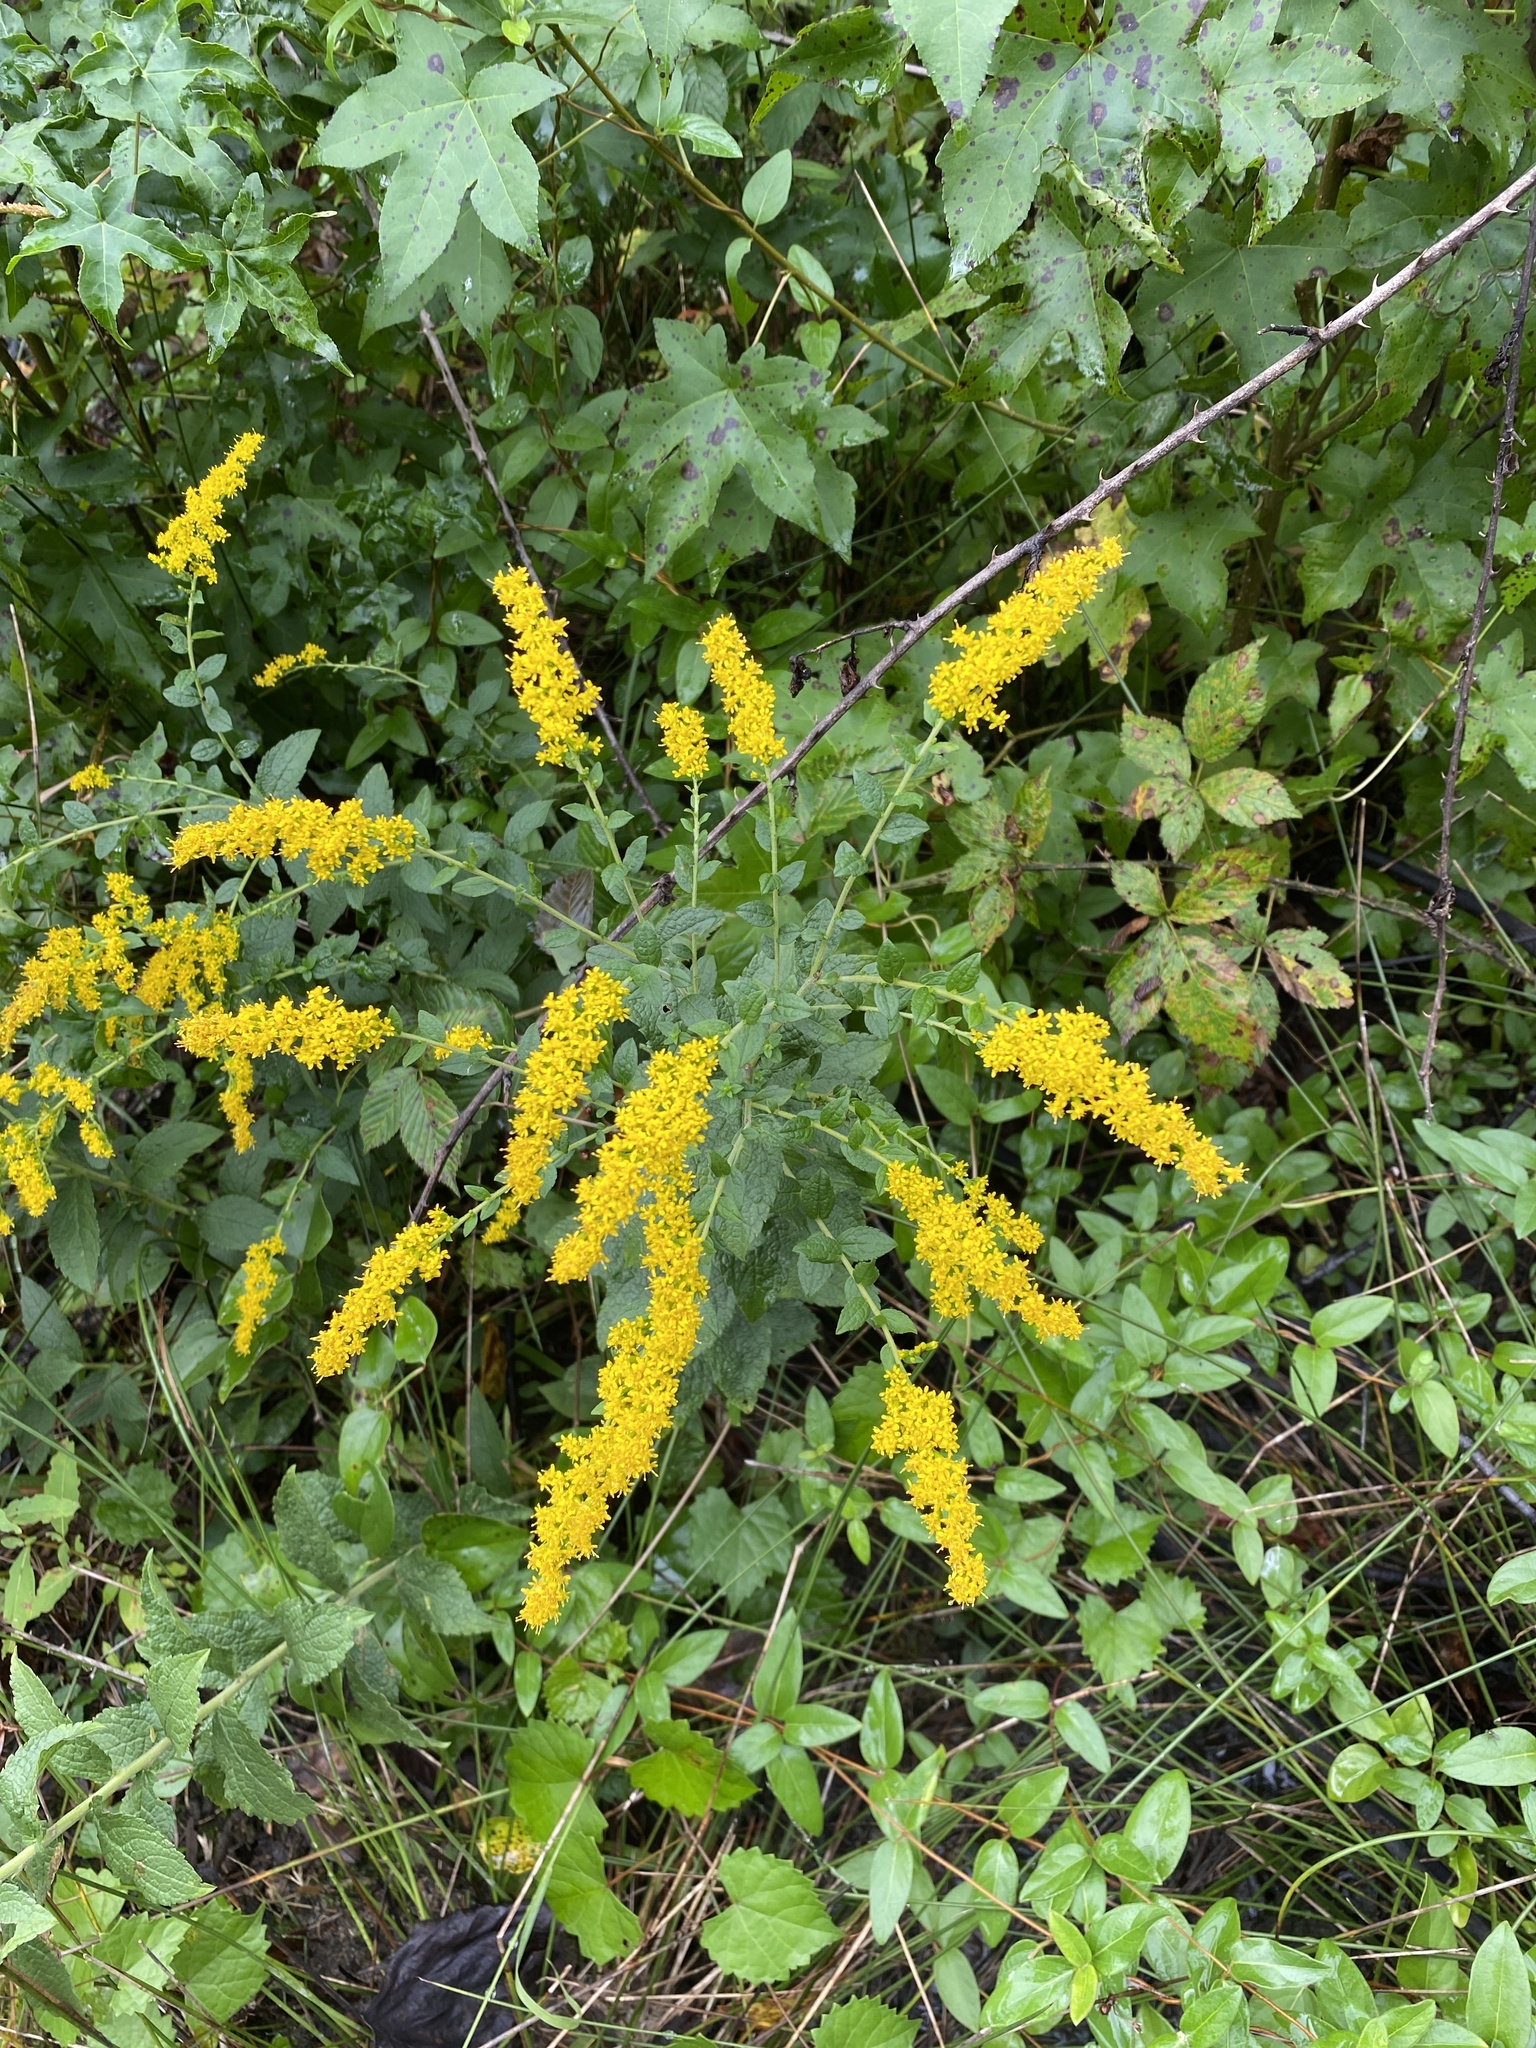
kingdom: Plantae
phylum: Tracheophyta
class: Magnoliopsida
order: Asterales
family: Asteraceae
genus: Solidago
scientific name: Solidago rugosa
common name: Rough-stemmed goldenrod
